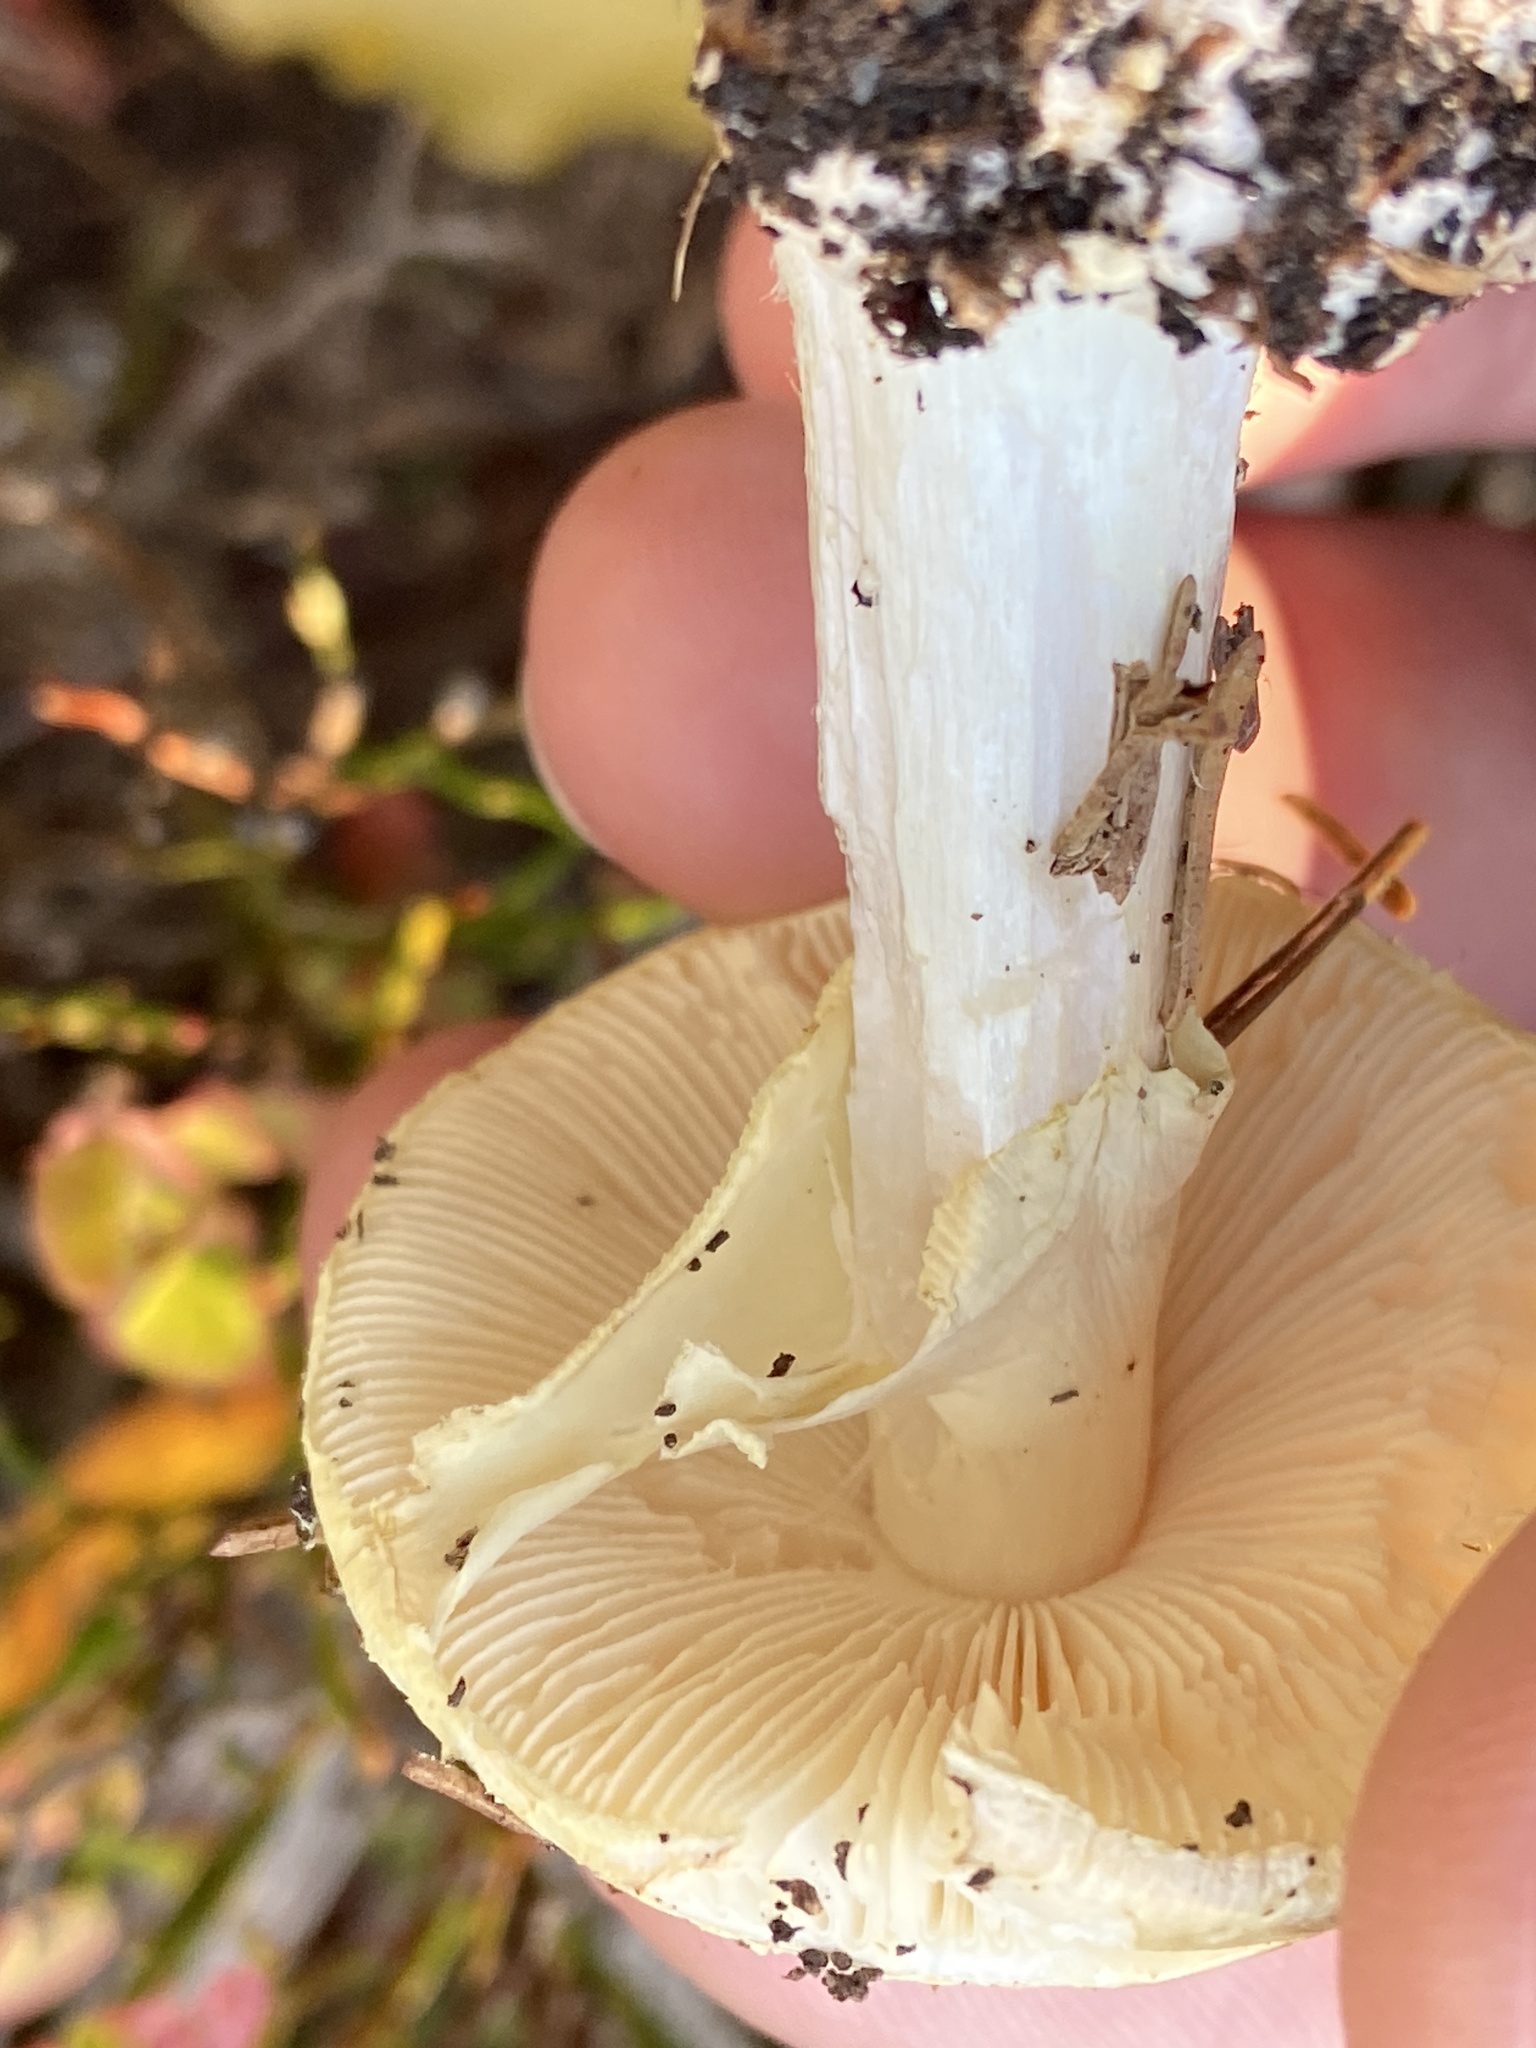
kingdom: Fungi
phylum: Basidiomycota
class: Agaricomycetes
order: Agaricales
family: Amanitaceae
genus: Amanita
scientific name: Amanita citrina
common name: False death-cap
